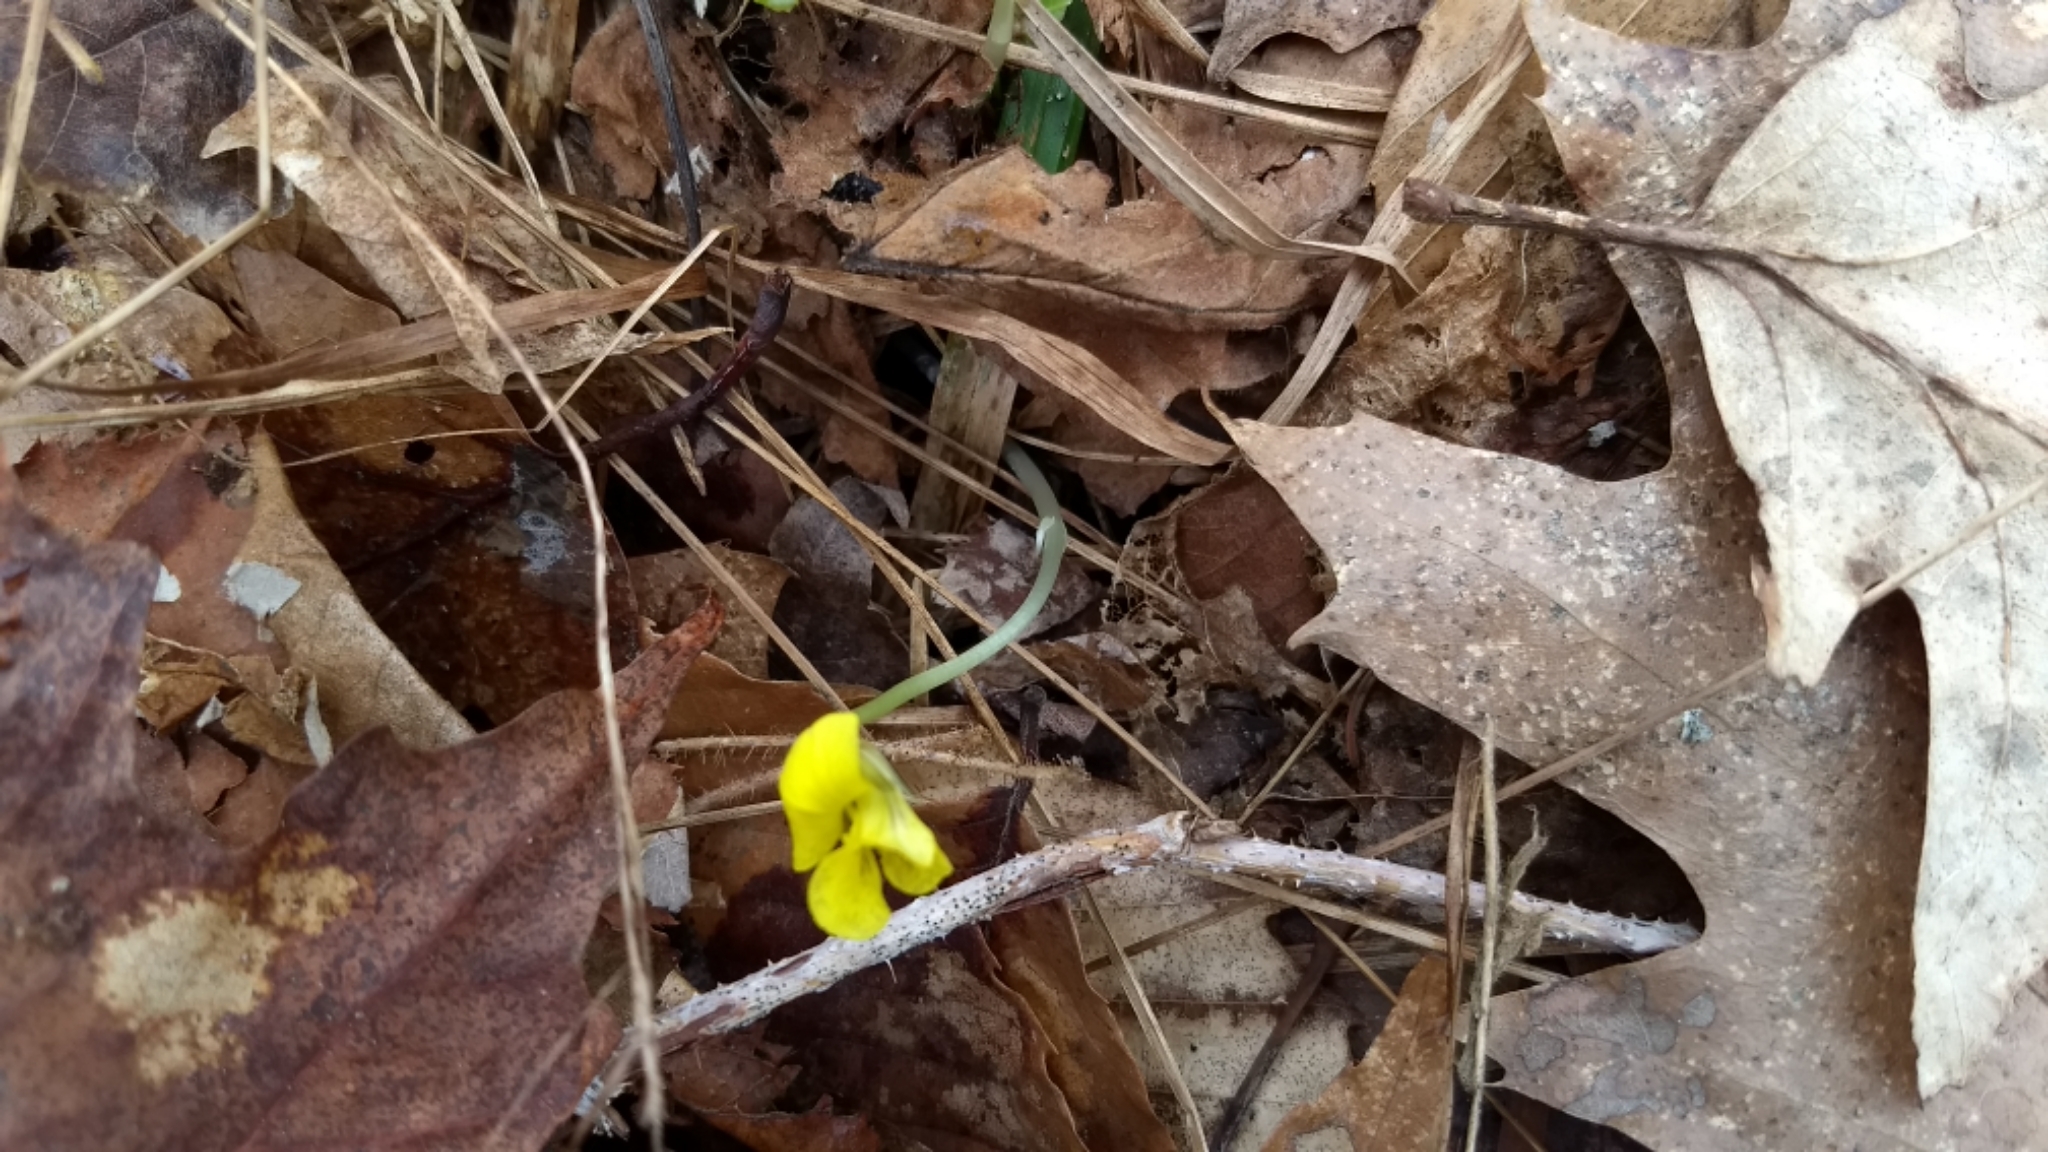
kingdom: Plantae
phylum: Tracheophyta
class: Magnoliopsida
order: Malpighiales
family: Violaceae
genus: Viola
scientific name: Viola rotundifolia
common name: Early yellow violet
